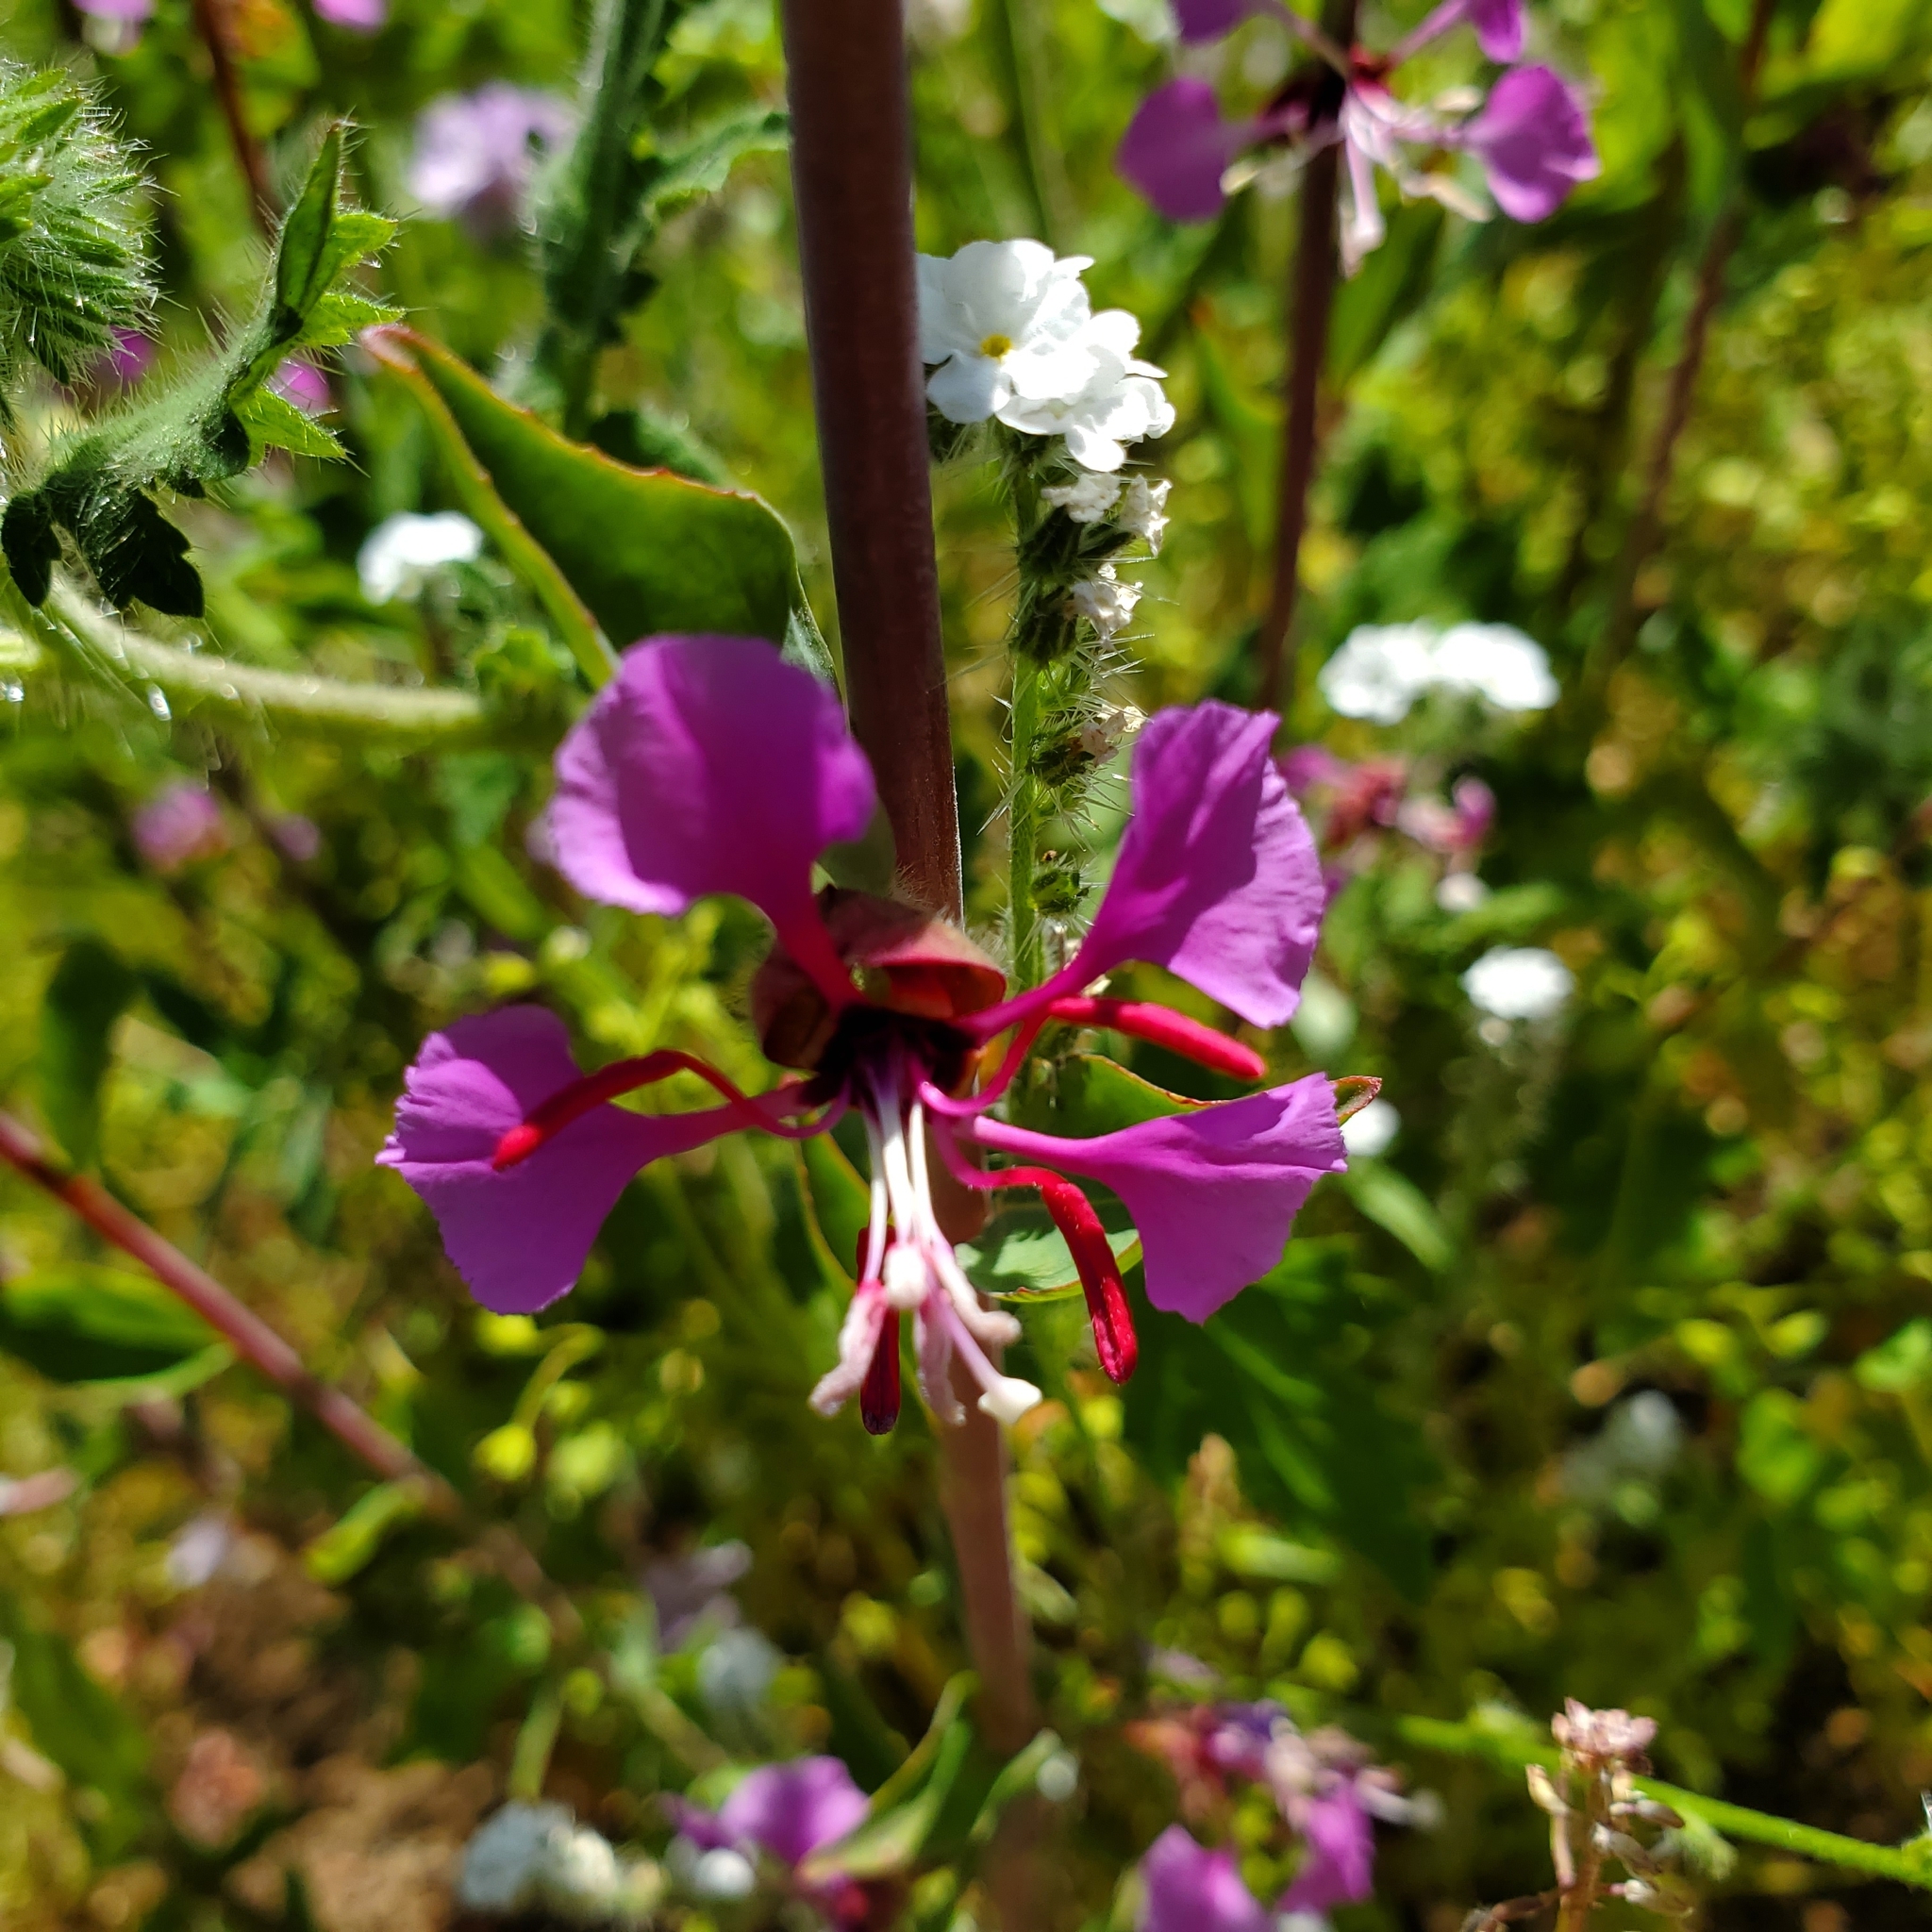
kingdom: Plantae
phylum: Tracheophyta
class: Magnoliopsida
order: Myrtales
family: Onagraceae
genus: Clarkia
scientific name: Clarkia unguiculata
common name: Clarkia
